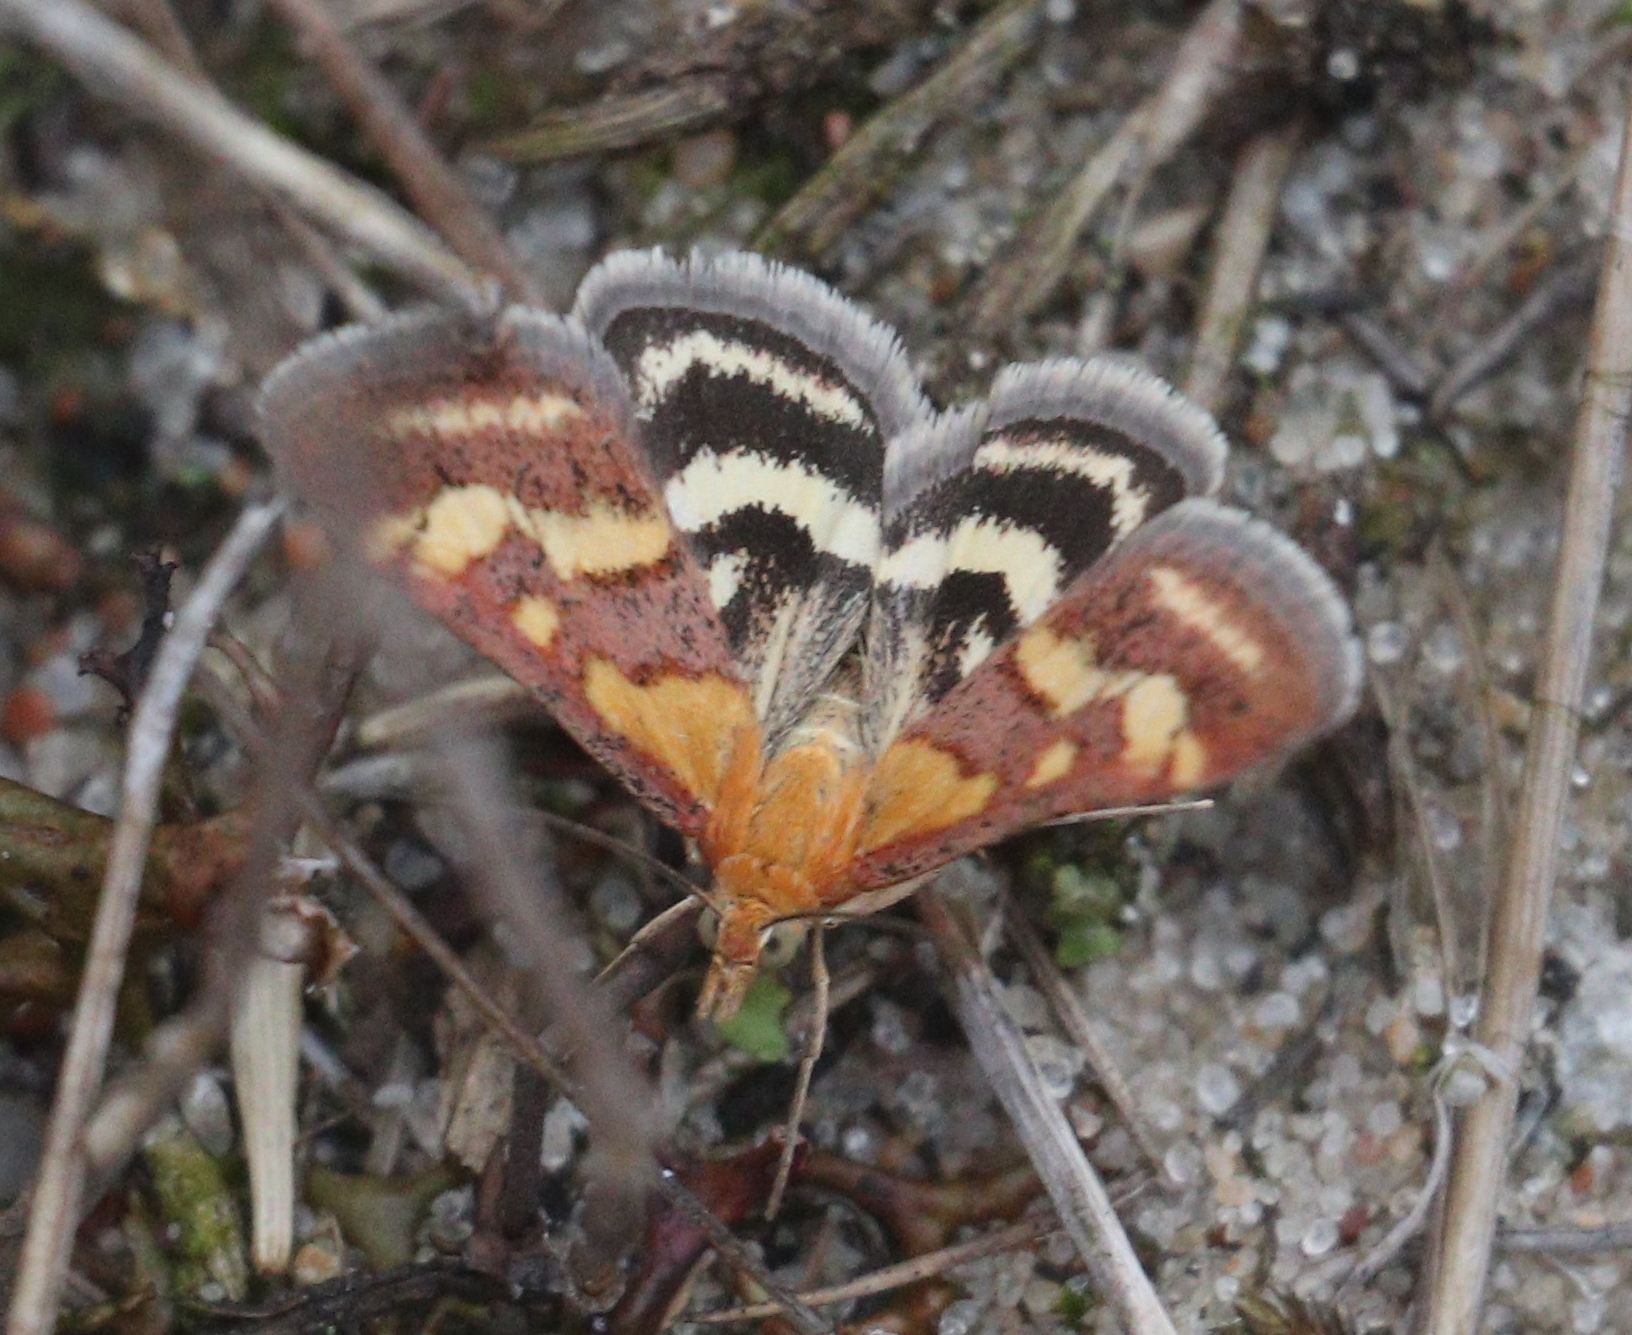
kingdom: Animalia
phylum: Arthropoda
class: Insecta
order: Lepidoptera
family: Crambidae
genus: Pyrausta
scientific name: Pyrausta ostrinalis
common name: Scarce purple & gold
